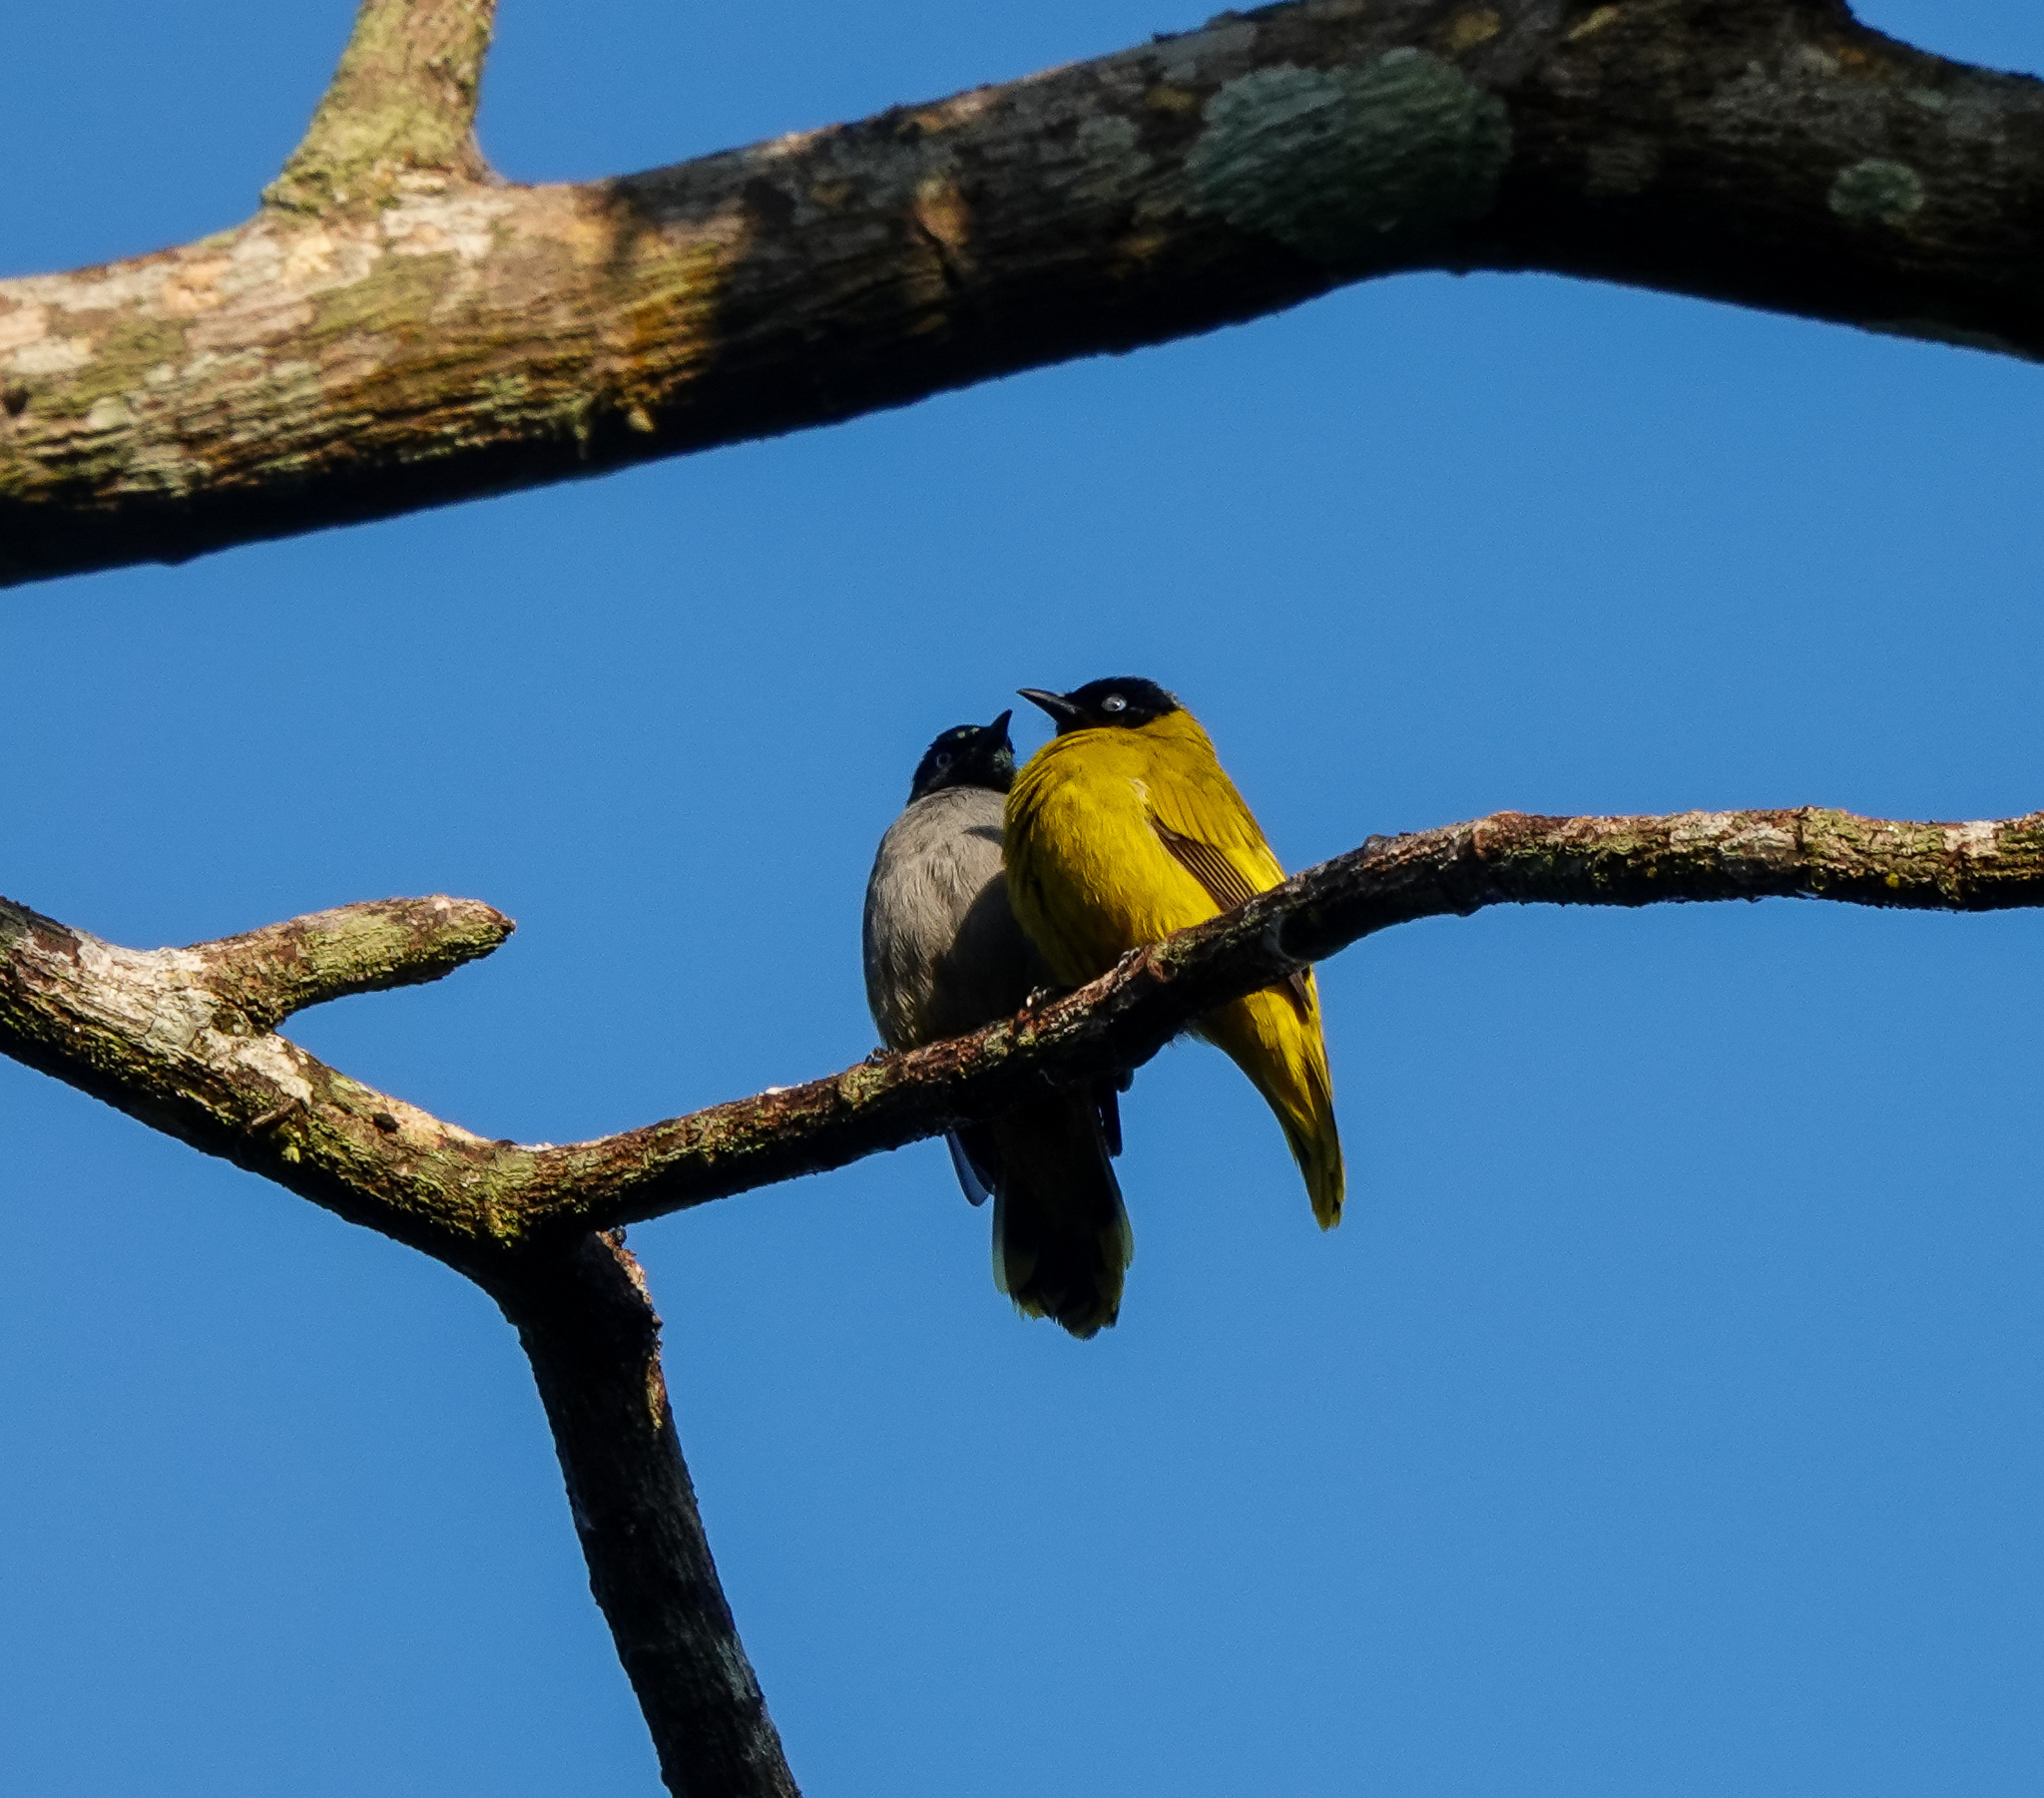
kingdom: Animalia
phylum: Chordata
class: Aves
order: Passeriformes
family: Pycnonotidae
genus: Microtarsus
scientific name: Microtarsus
